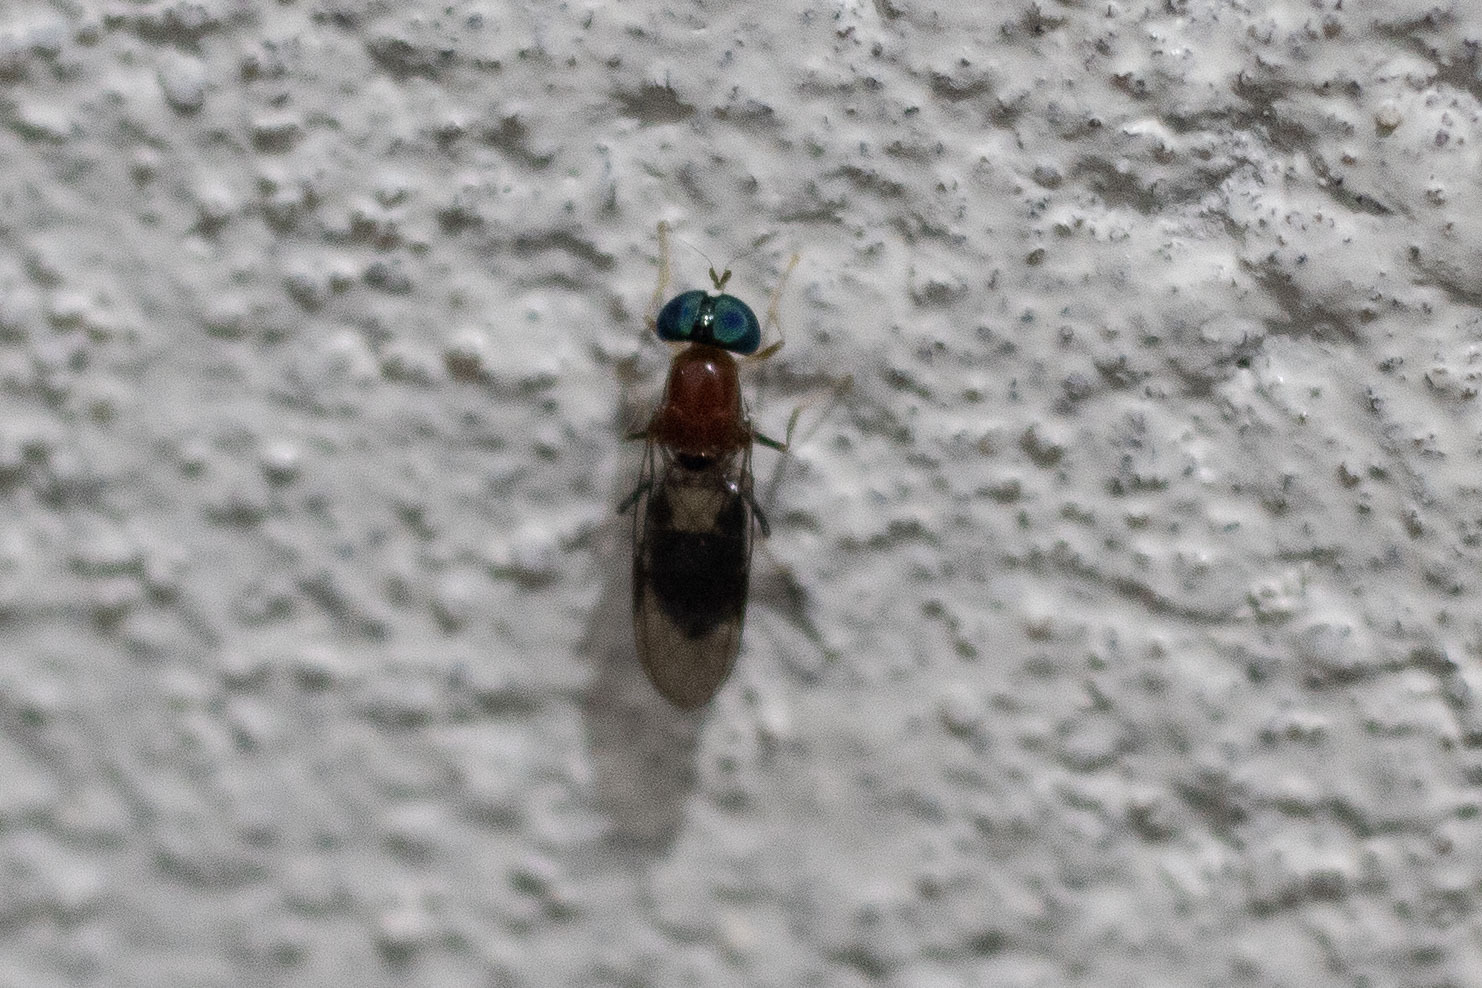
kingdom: Animalia
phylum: Arthropoda
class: Insecta
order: Diptera
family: Stratiomyidae
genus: Sargus
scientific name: Sargus thoracicus
